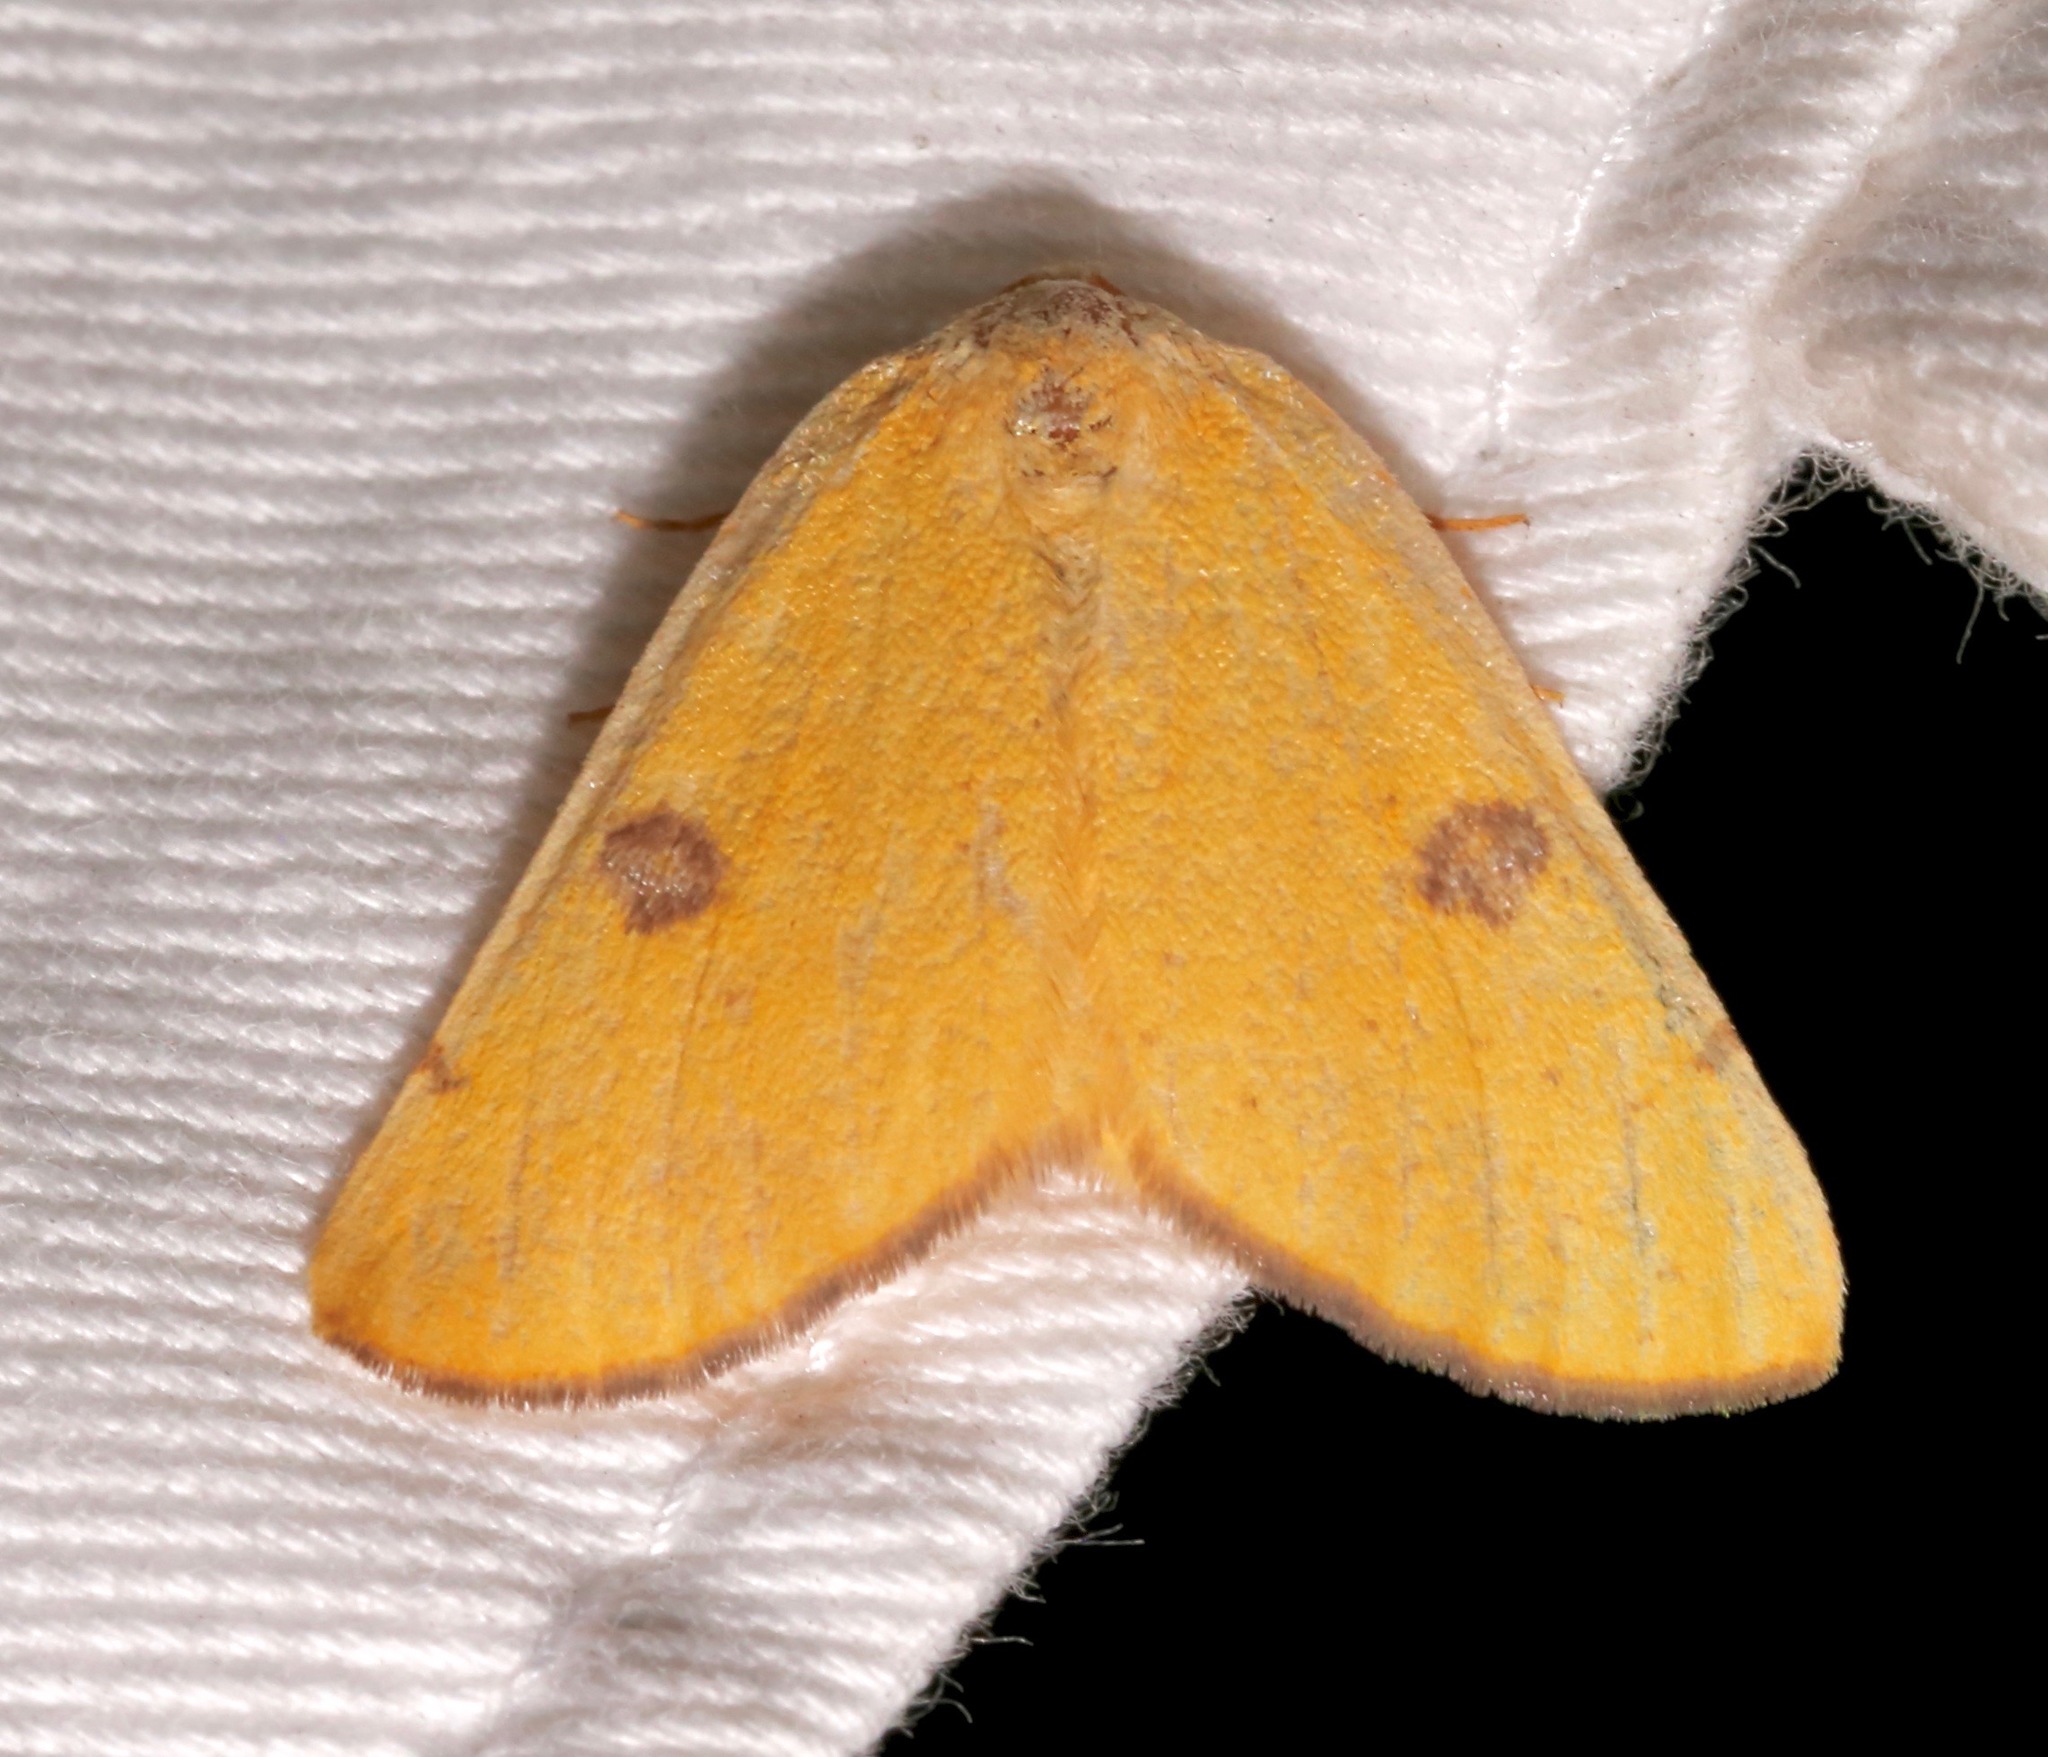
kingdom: Animalia
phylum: Arthropoda
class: Insecta
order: Lepidoptera
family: Geometridae
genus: Hesperumia
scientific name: Hesperumia sulphuraria
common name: Sulphur moth
